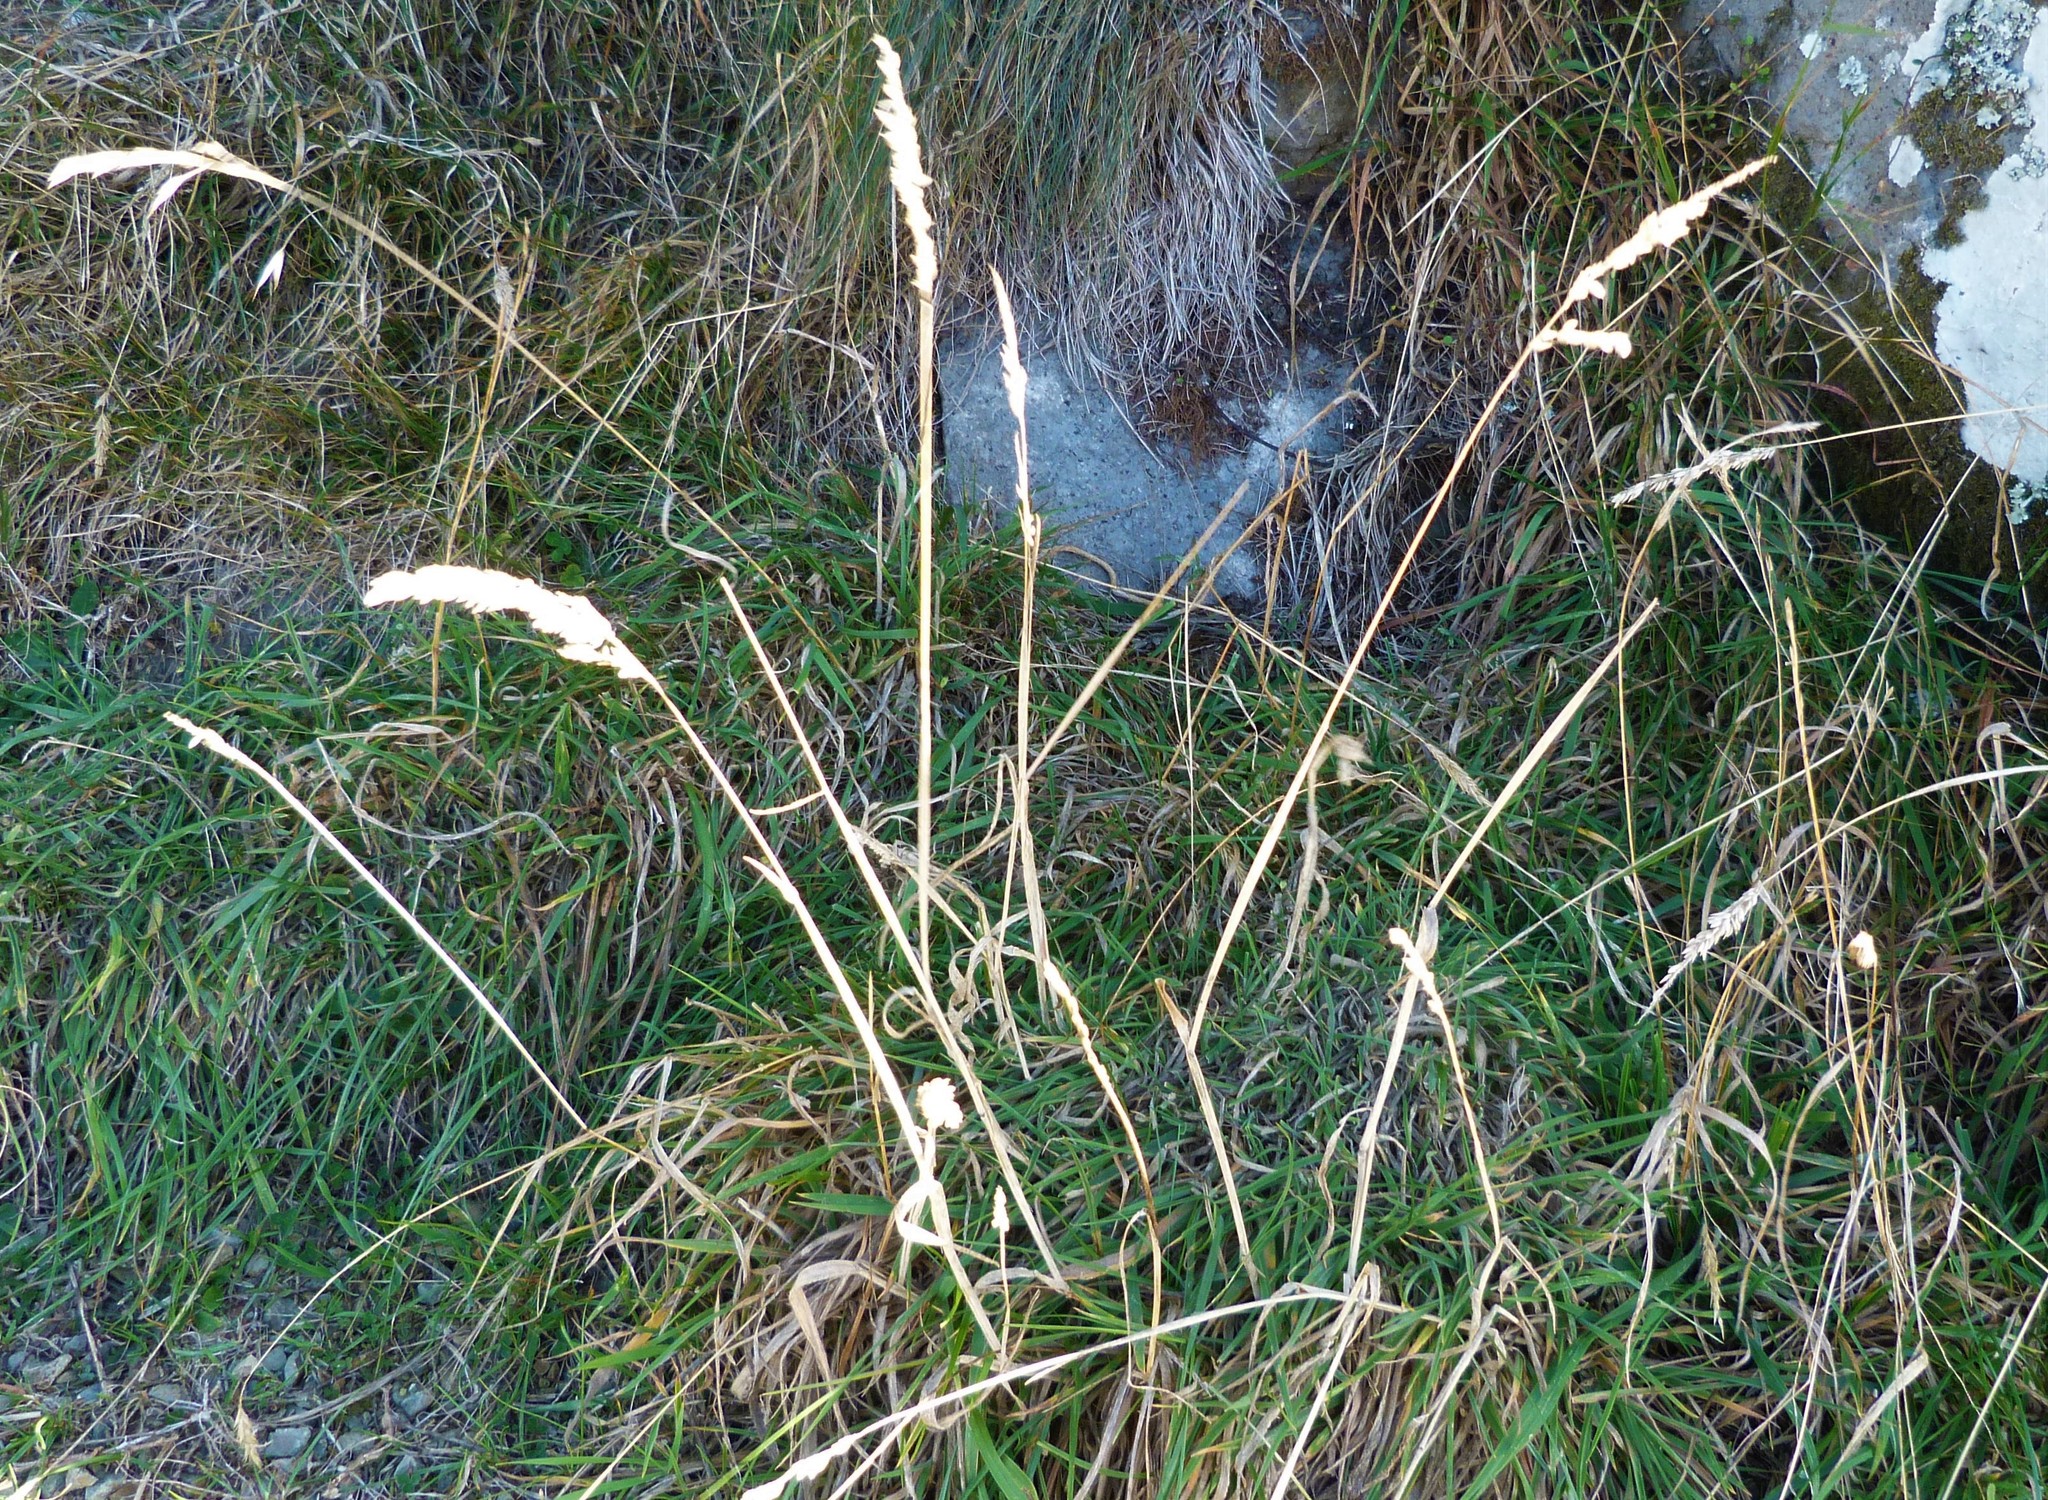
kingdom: Plantae
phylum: Tracheophyta
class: Liliopsida
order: Poales
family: Poaceae
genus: Holcus
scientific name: Holcus lanatus
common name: Yorkshire-fog
